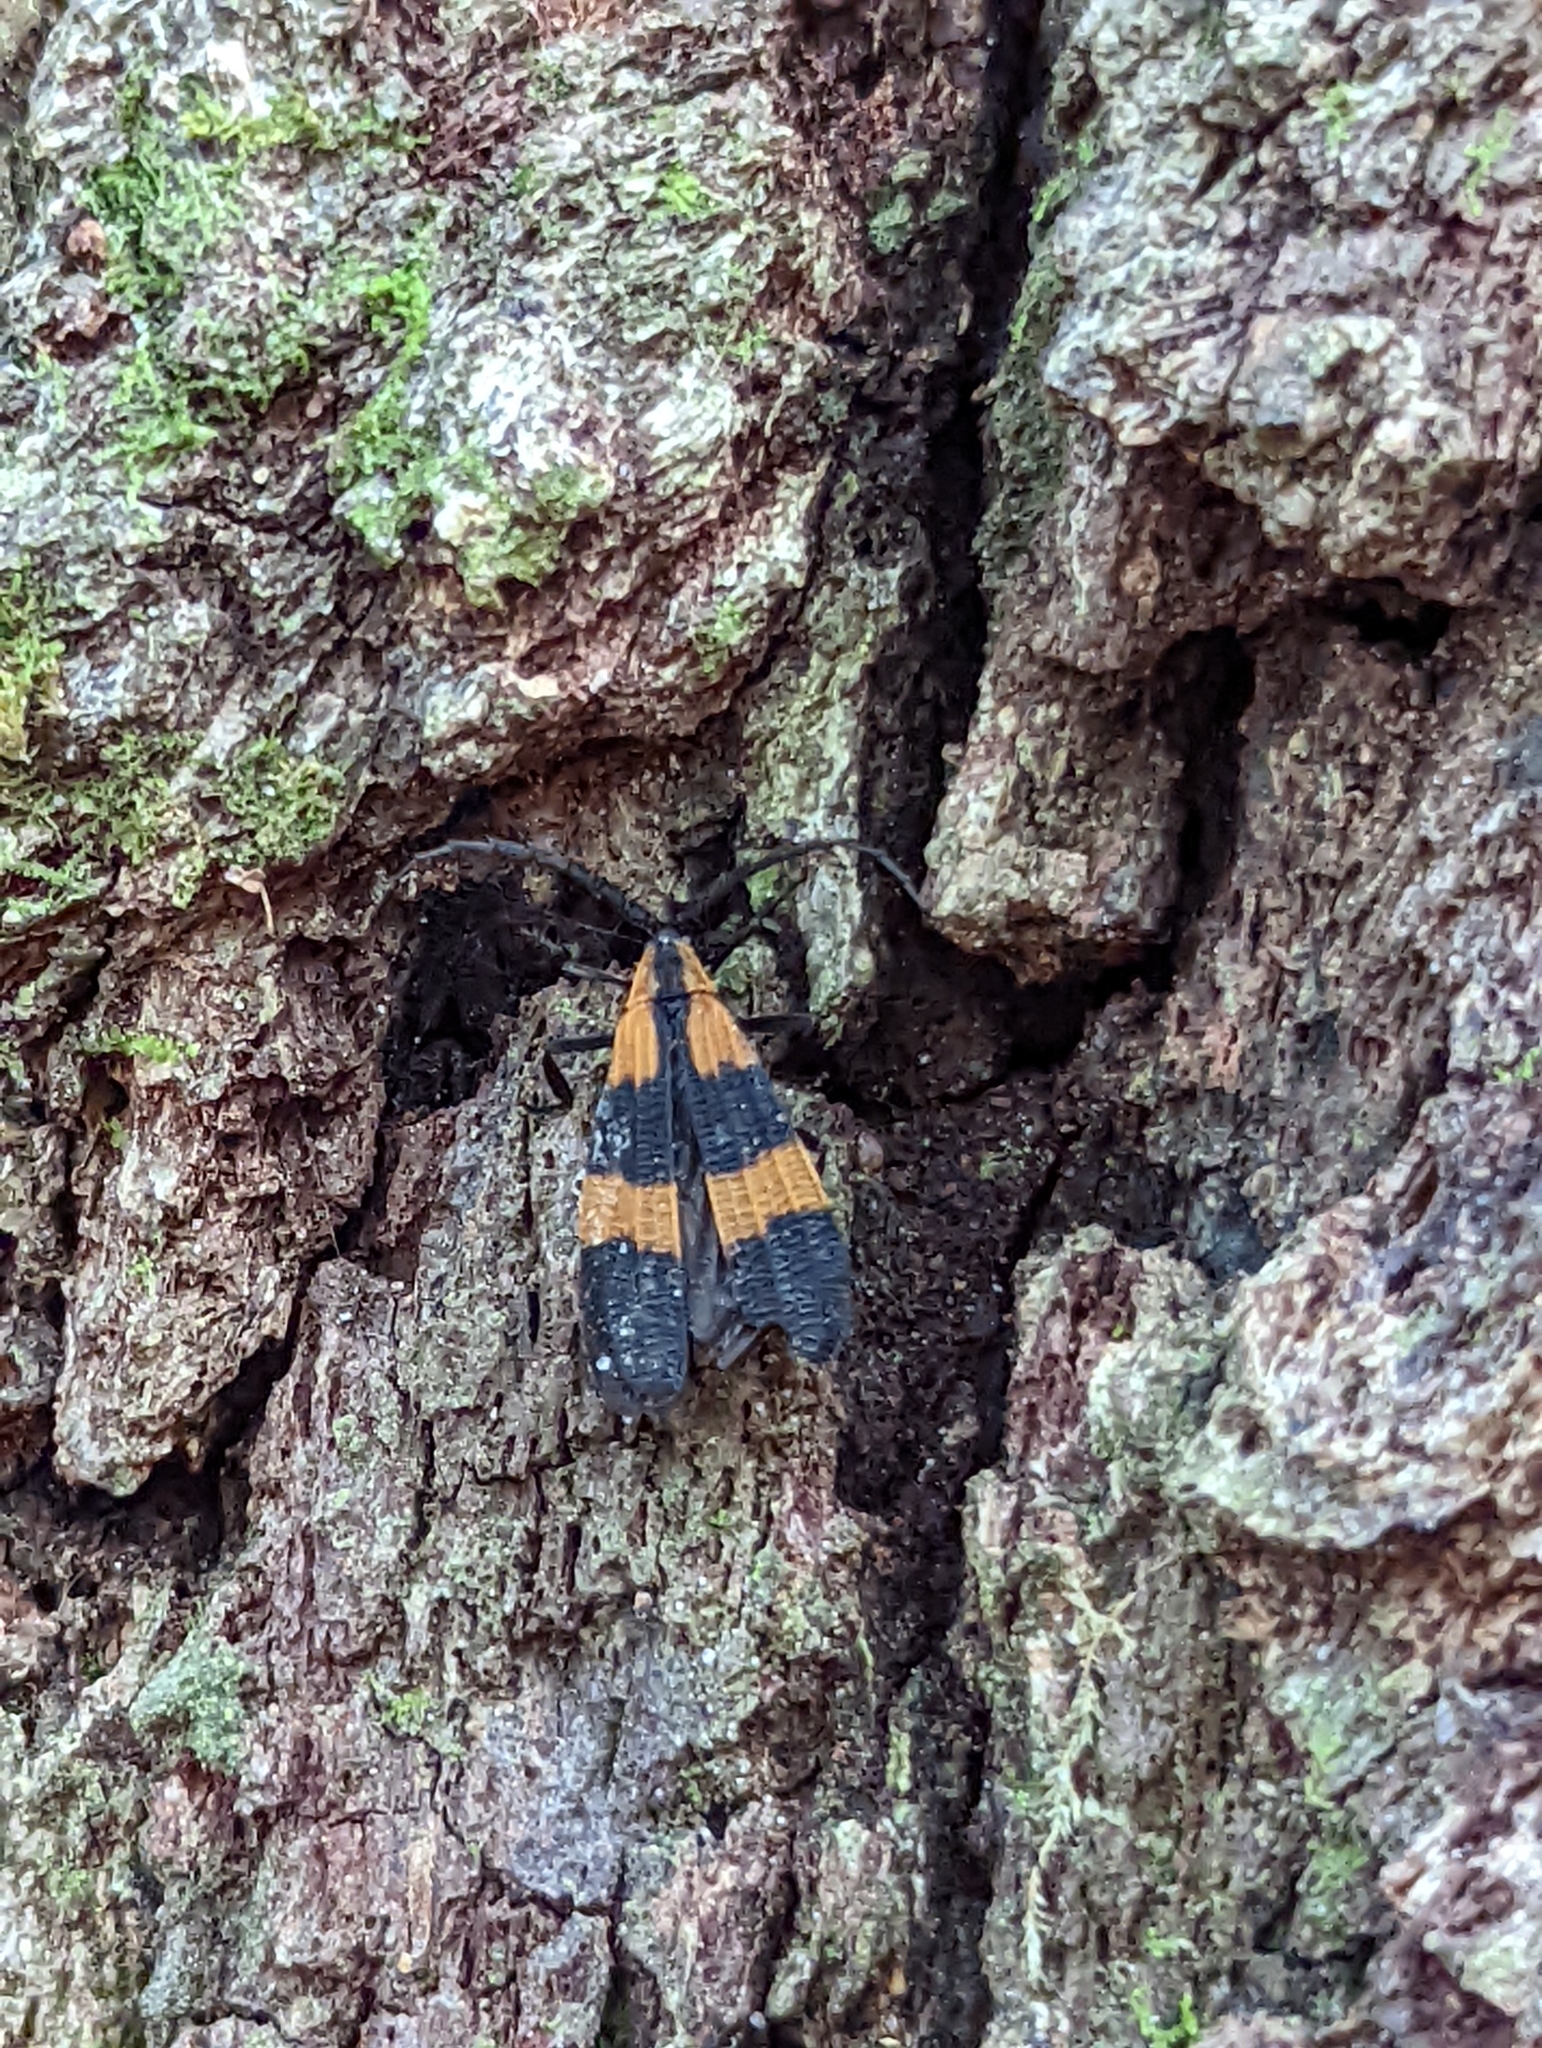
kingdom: Animalia
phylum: Arthropoda
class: Insecta
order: Coleoptera
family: Lycidae
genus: Calopteron
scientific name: Calopteron discrepans
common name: Banded net-winged beetle
